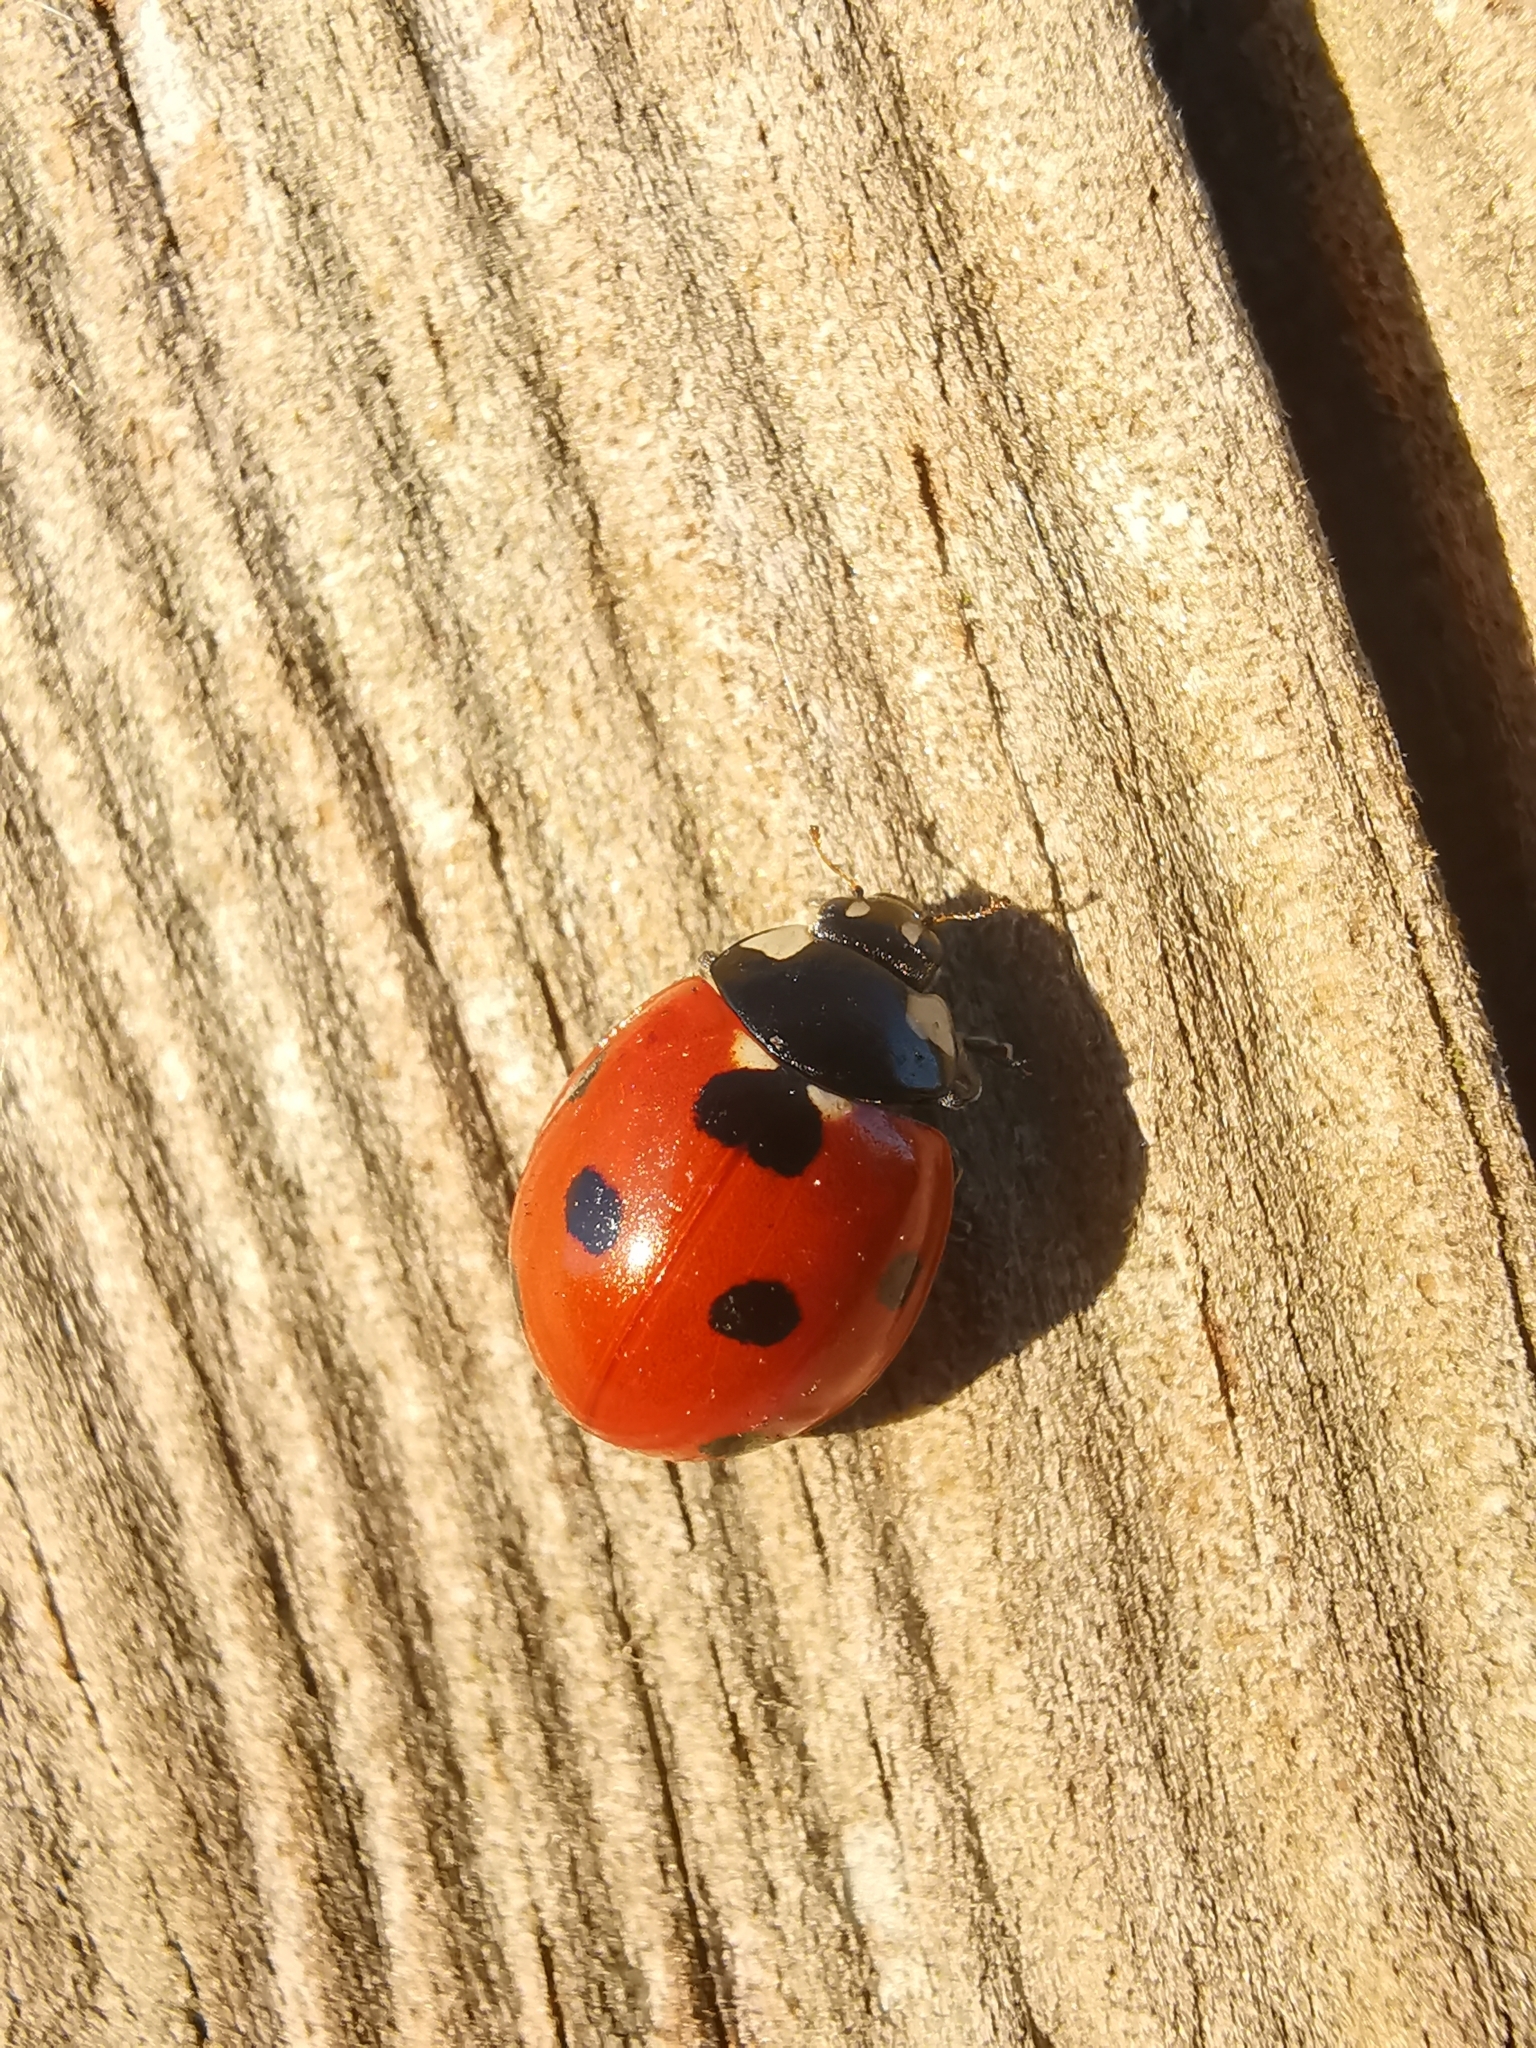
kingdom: Animalia
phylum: Arthropoda
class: Insecta
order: Coleoptera
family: Coccinellidae
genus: Coccinella
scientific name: Coccinella septempunctata
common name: Sevenspotted lady beetle
